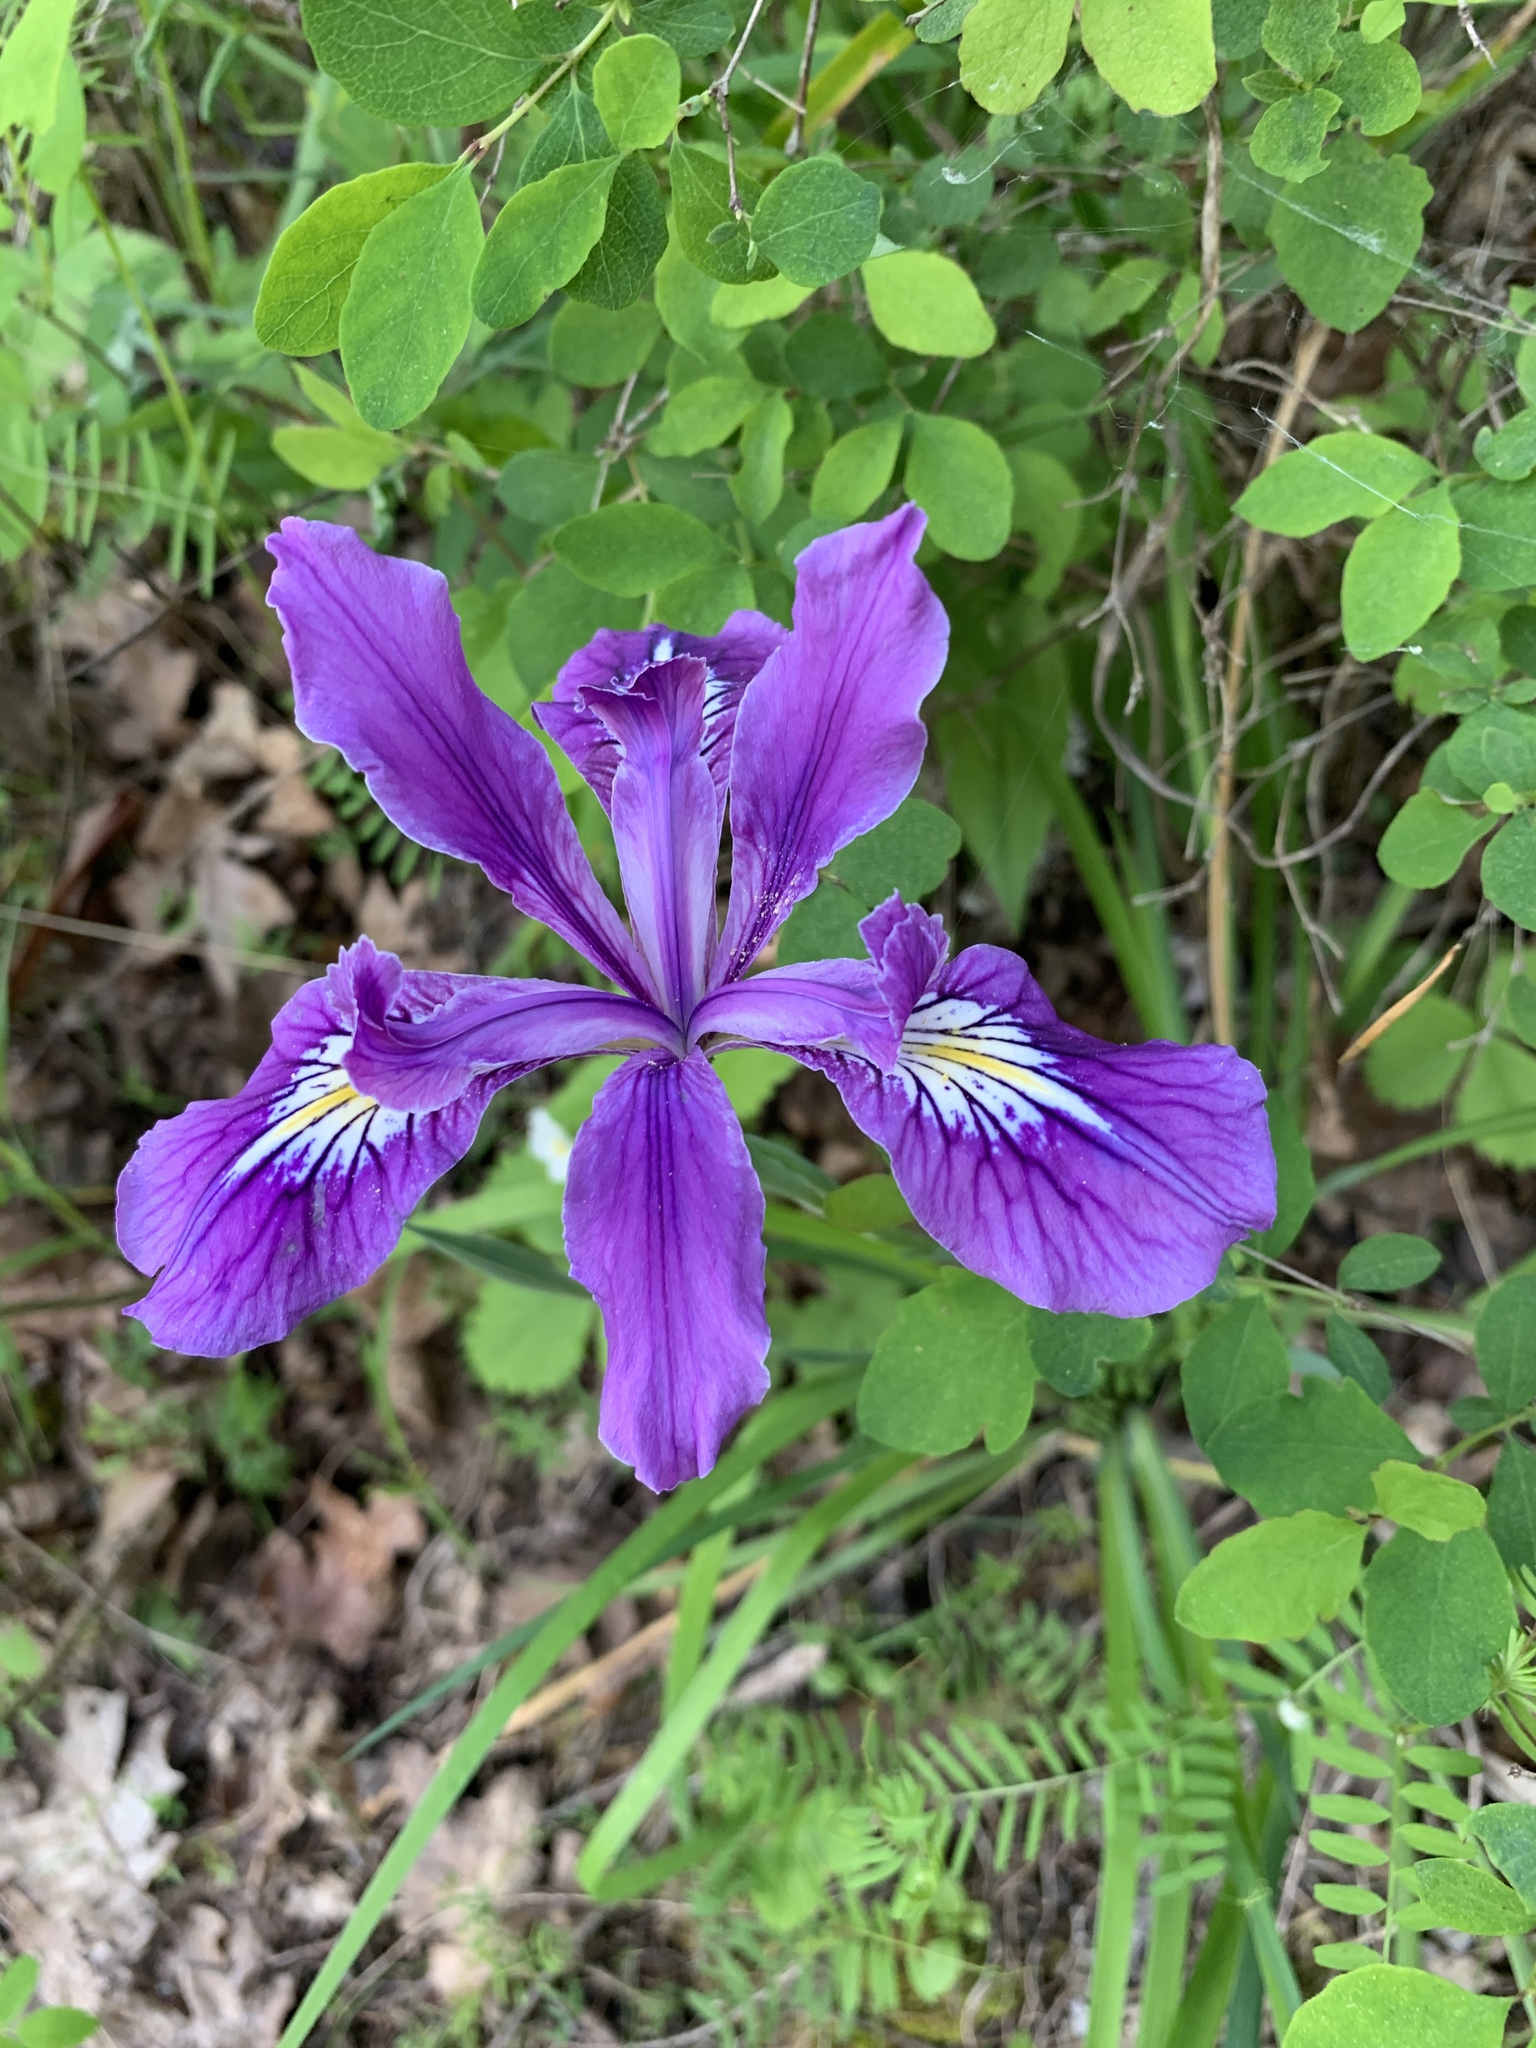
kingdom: Plantae
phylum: Tracheophyta
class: Liliopsida
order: Asparagales
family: Iridaceae
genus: Iris
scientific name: Iris tenax
